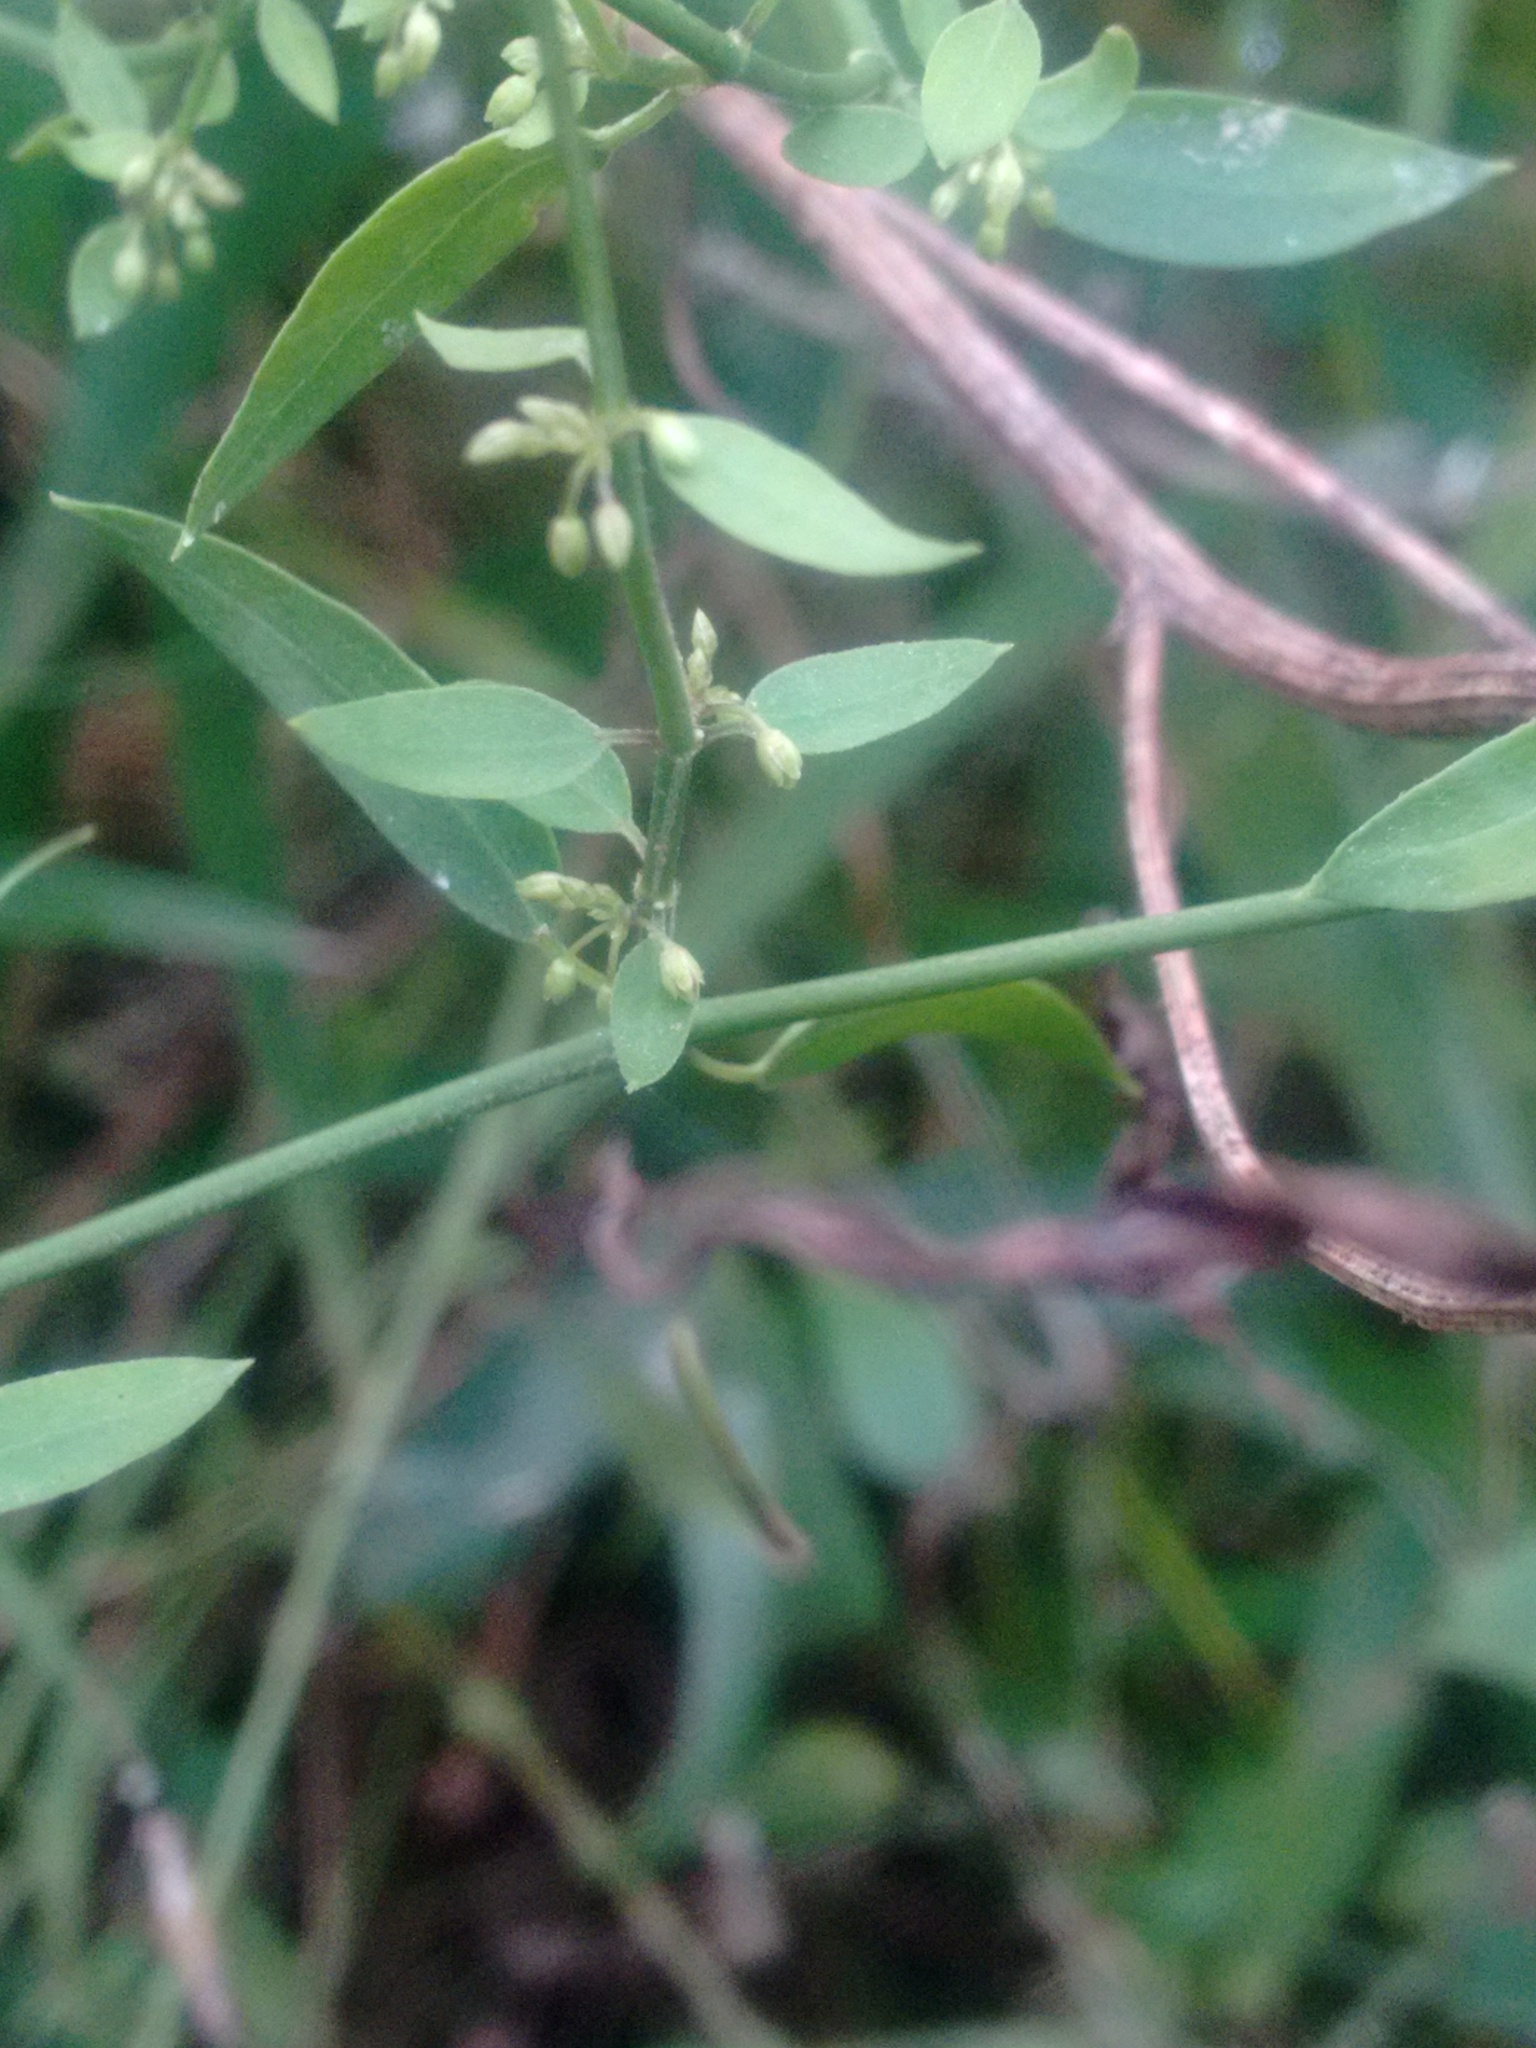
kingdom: Plantae
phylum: Tracheophyta
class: Magnoliopsida
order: Gentianales
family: Apocynaceae
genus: Metastelma
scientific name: Metastelma tubatum
